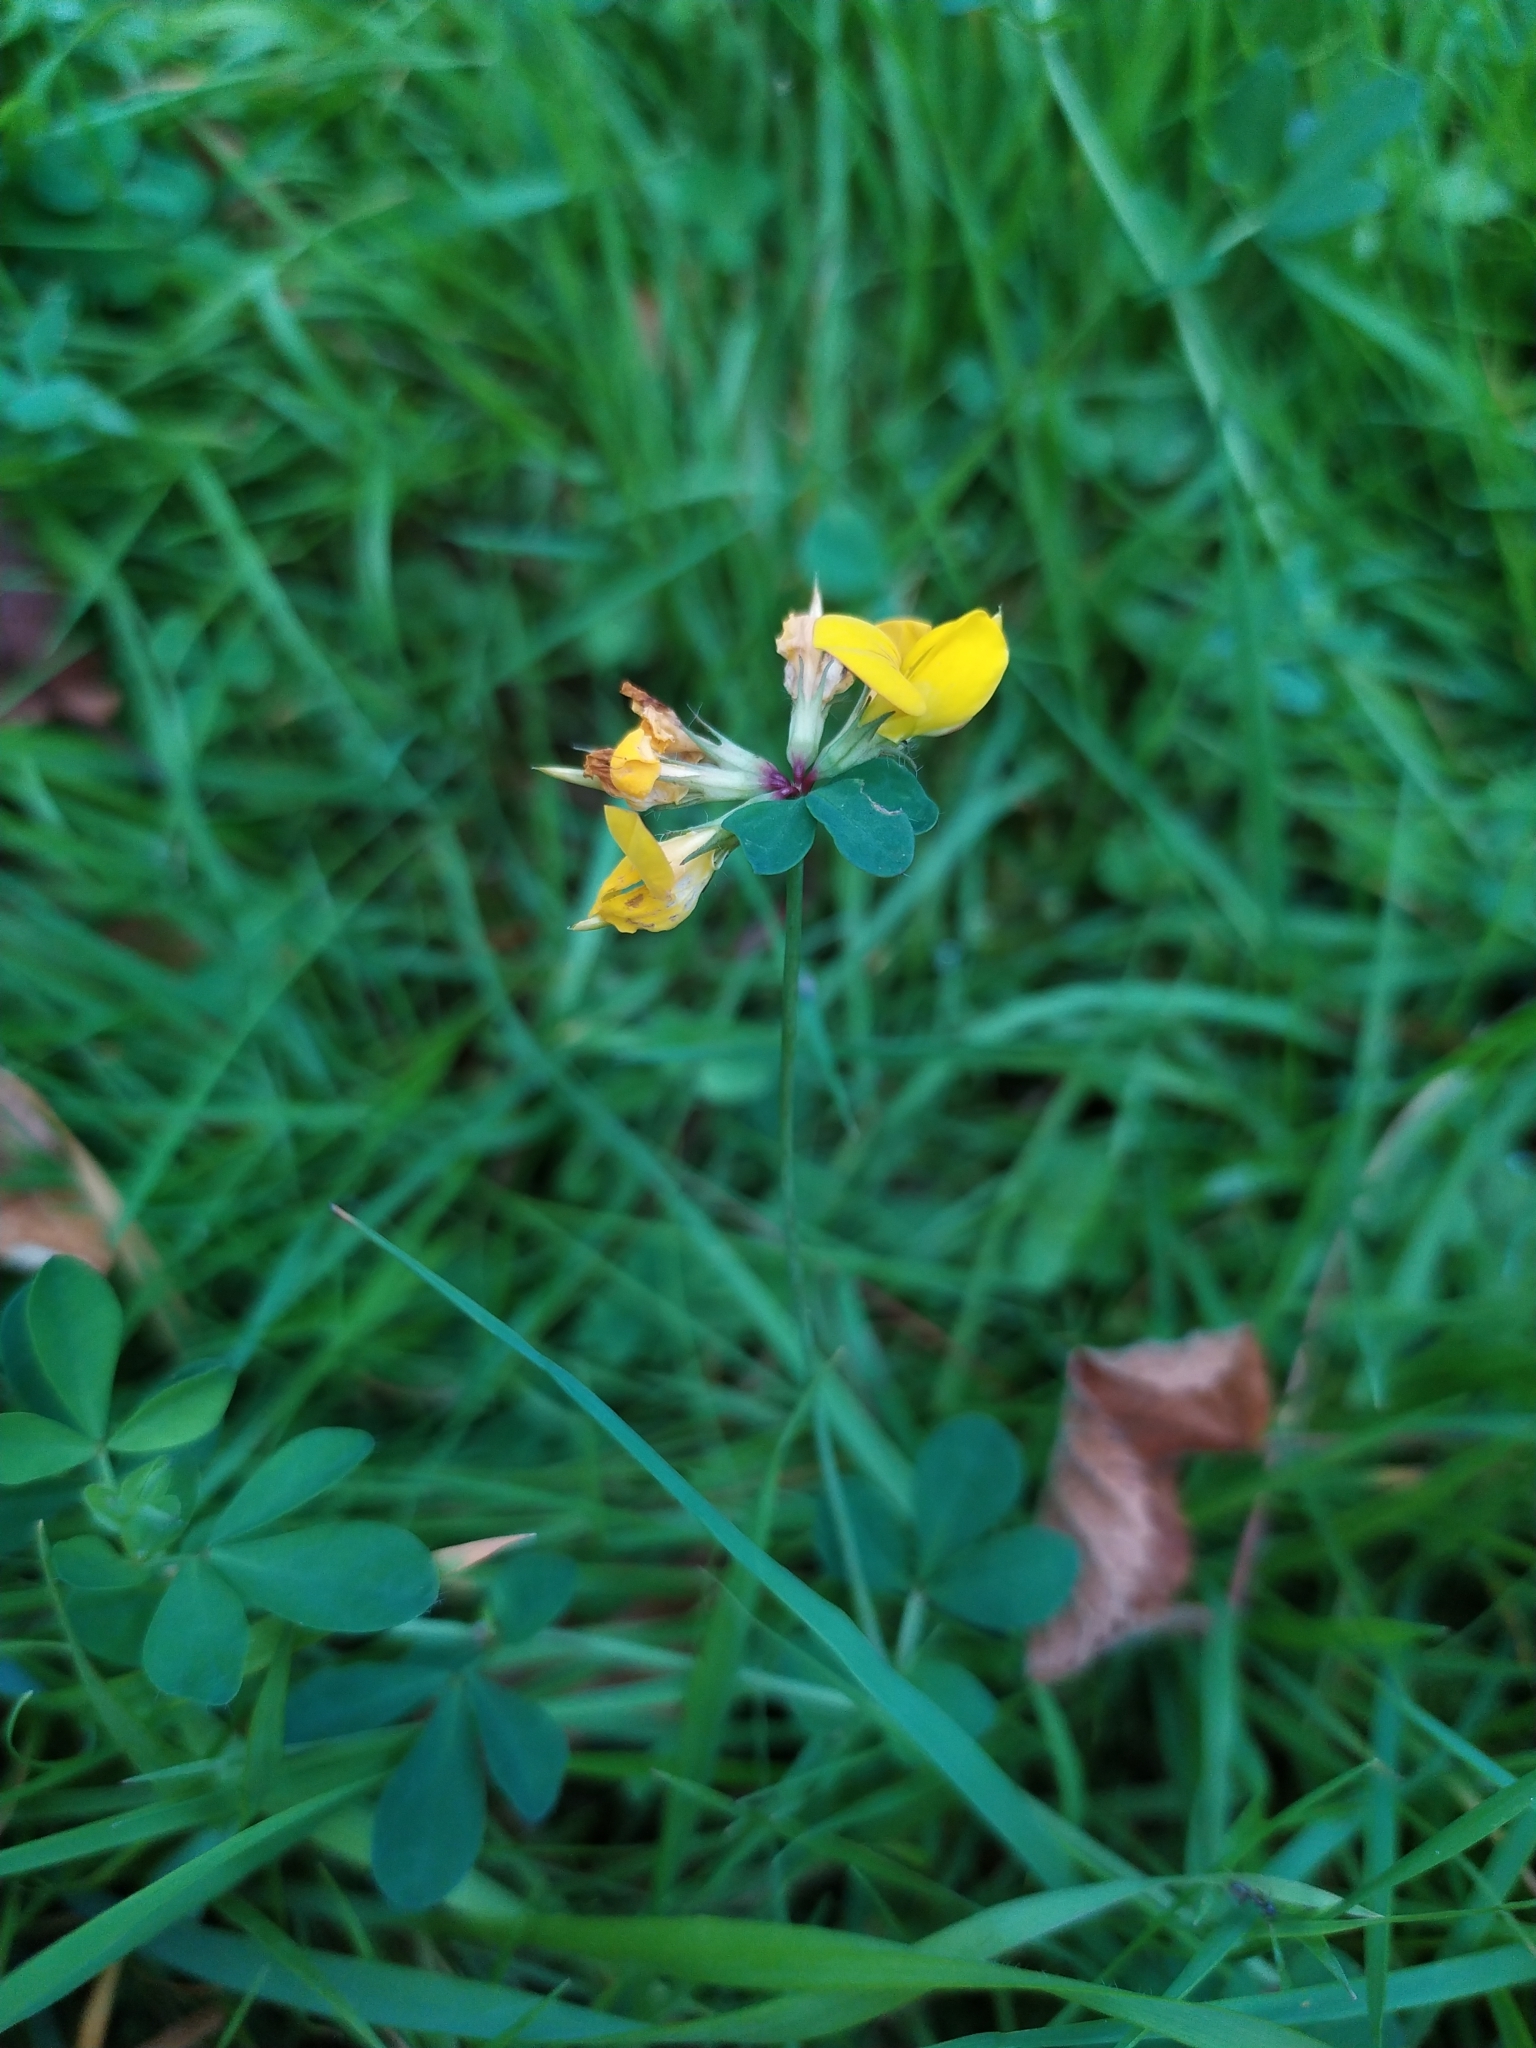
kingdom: Plantae
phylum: Tracheophyta
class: Magnoliopsida
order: Fabales
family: Fabaceae
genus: Lotus
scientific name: Lotus corniculatus
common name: Common bird's-foot-trefoil
